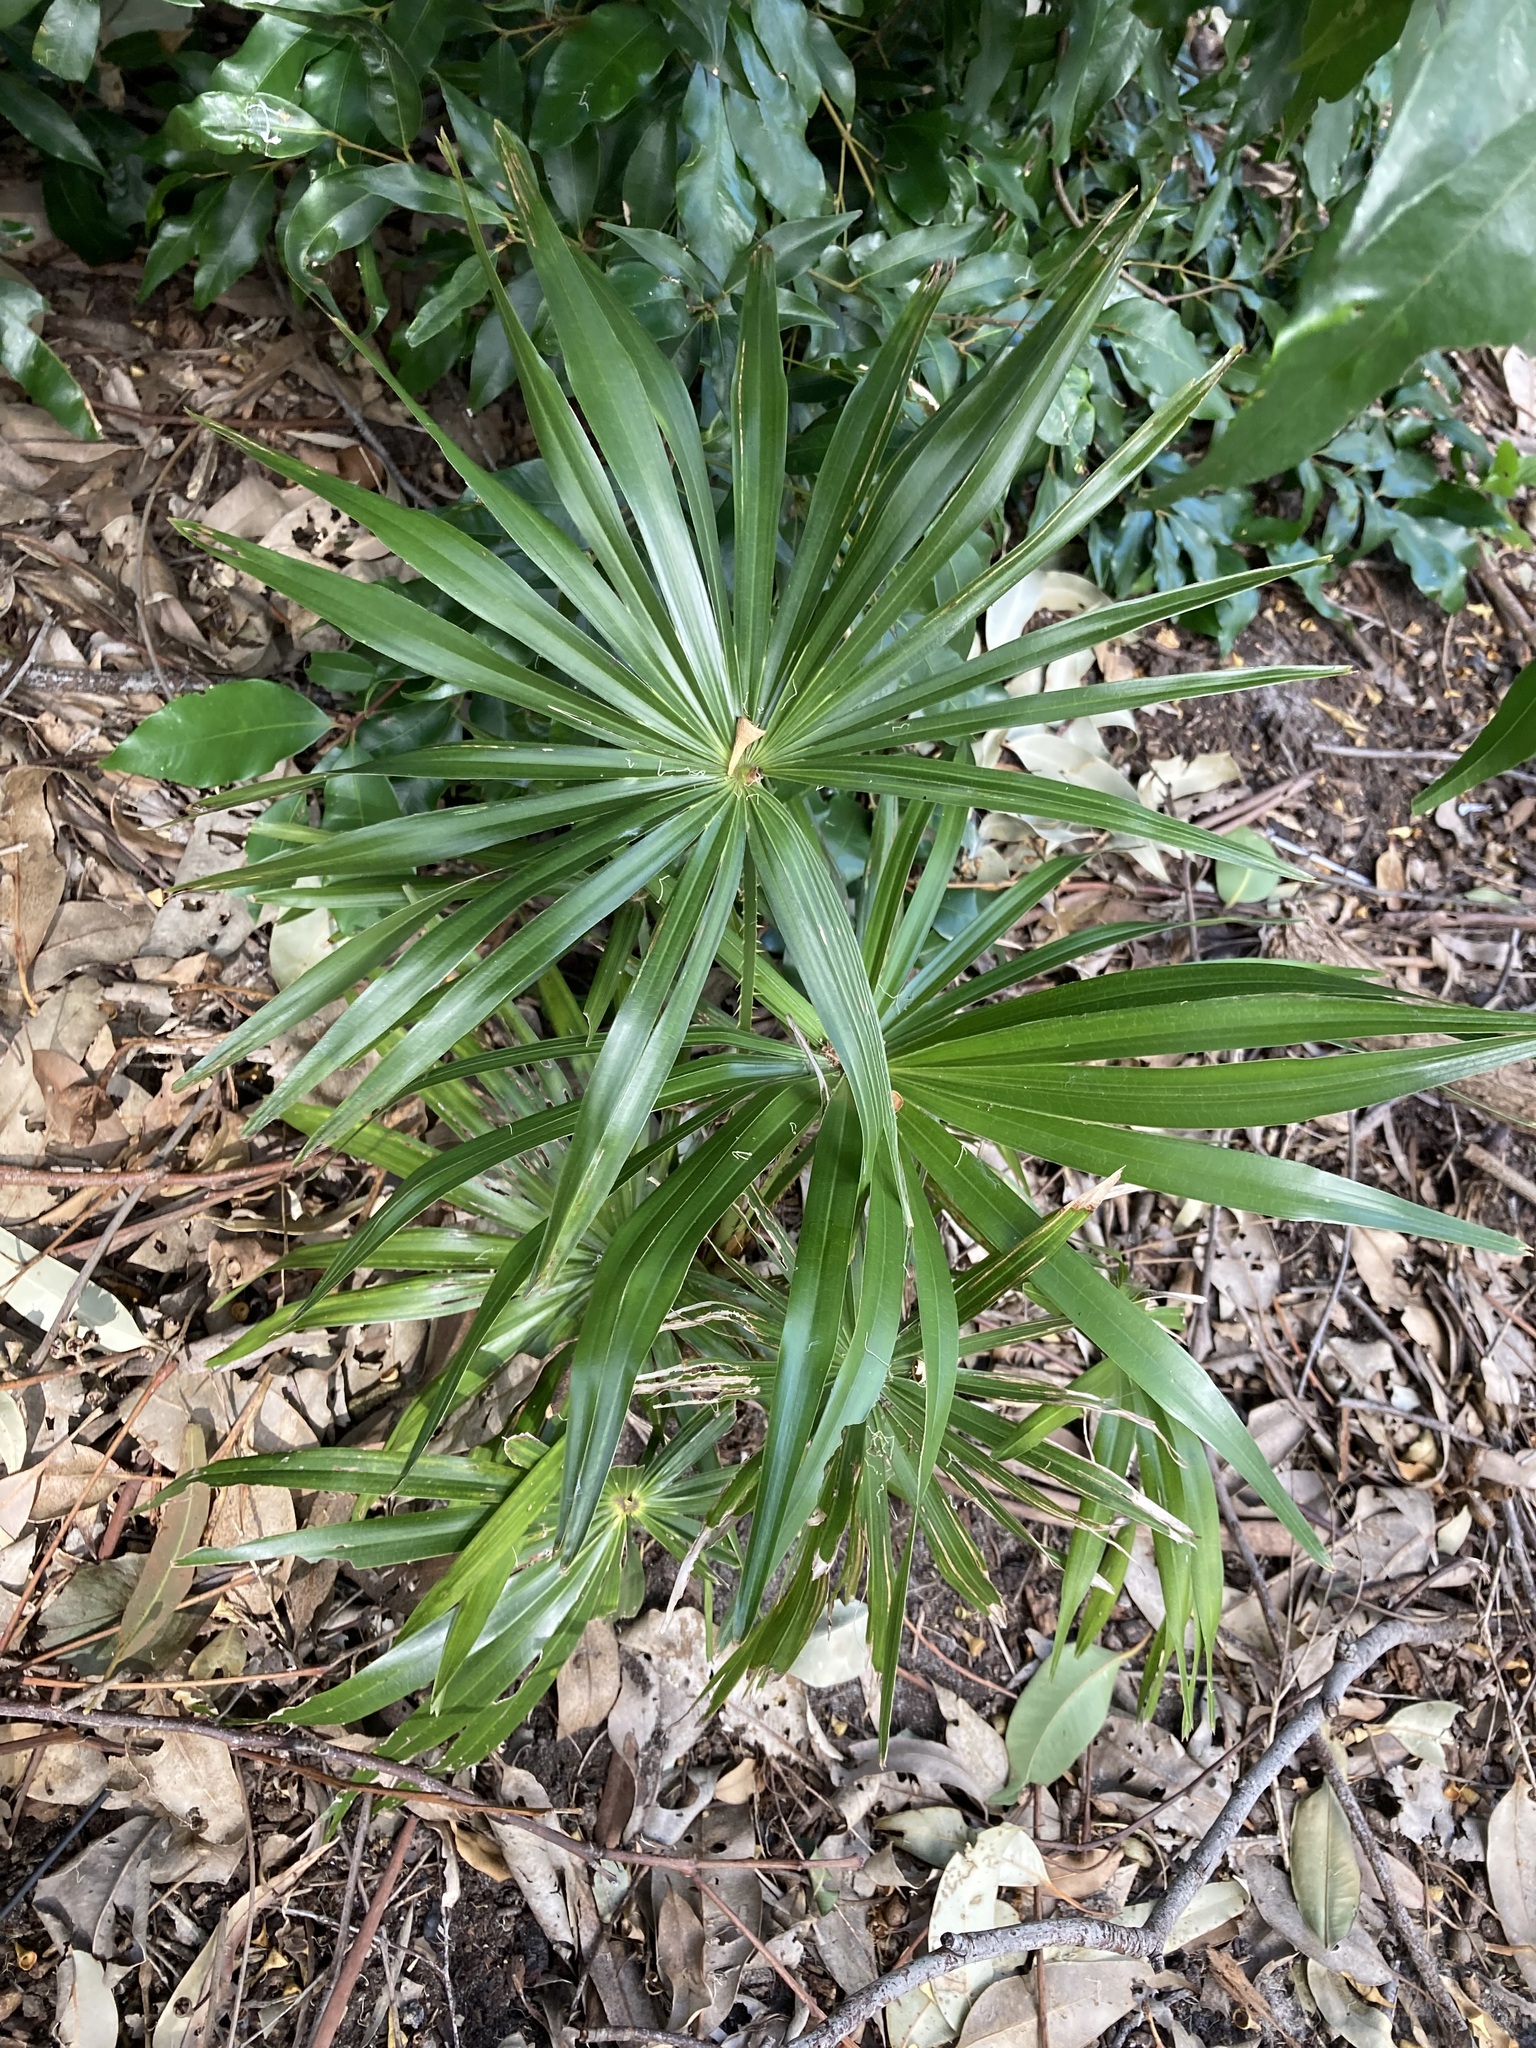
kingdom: Plantae
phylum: Tracheophyta
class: Liliopsida
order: Arecales
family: Arecaceae
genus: Livistona
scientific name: Livistona australis
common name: Cabbage fan palm
